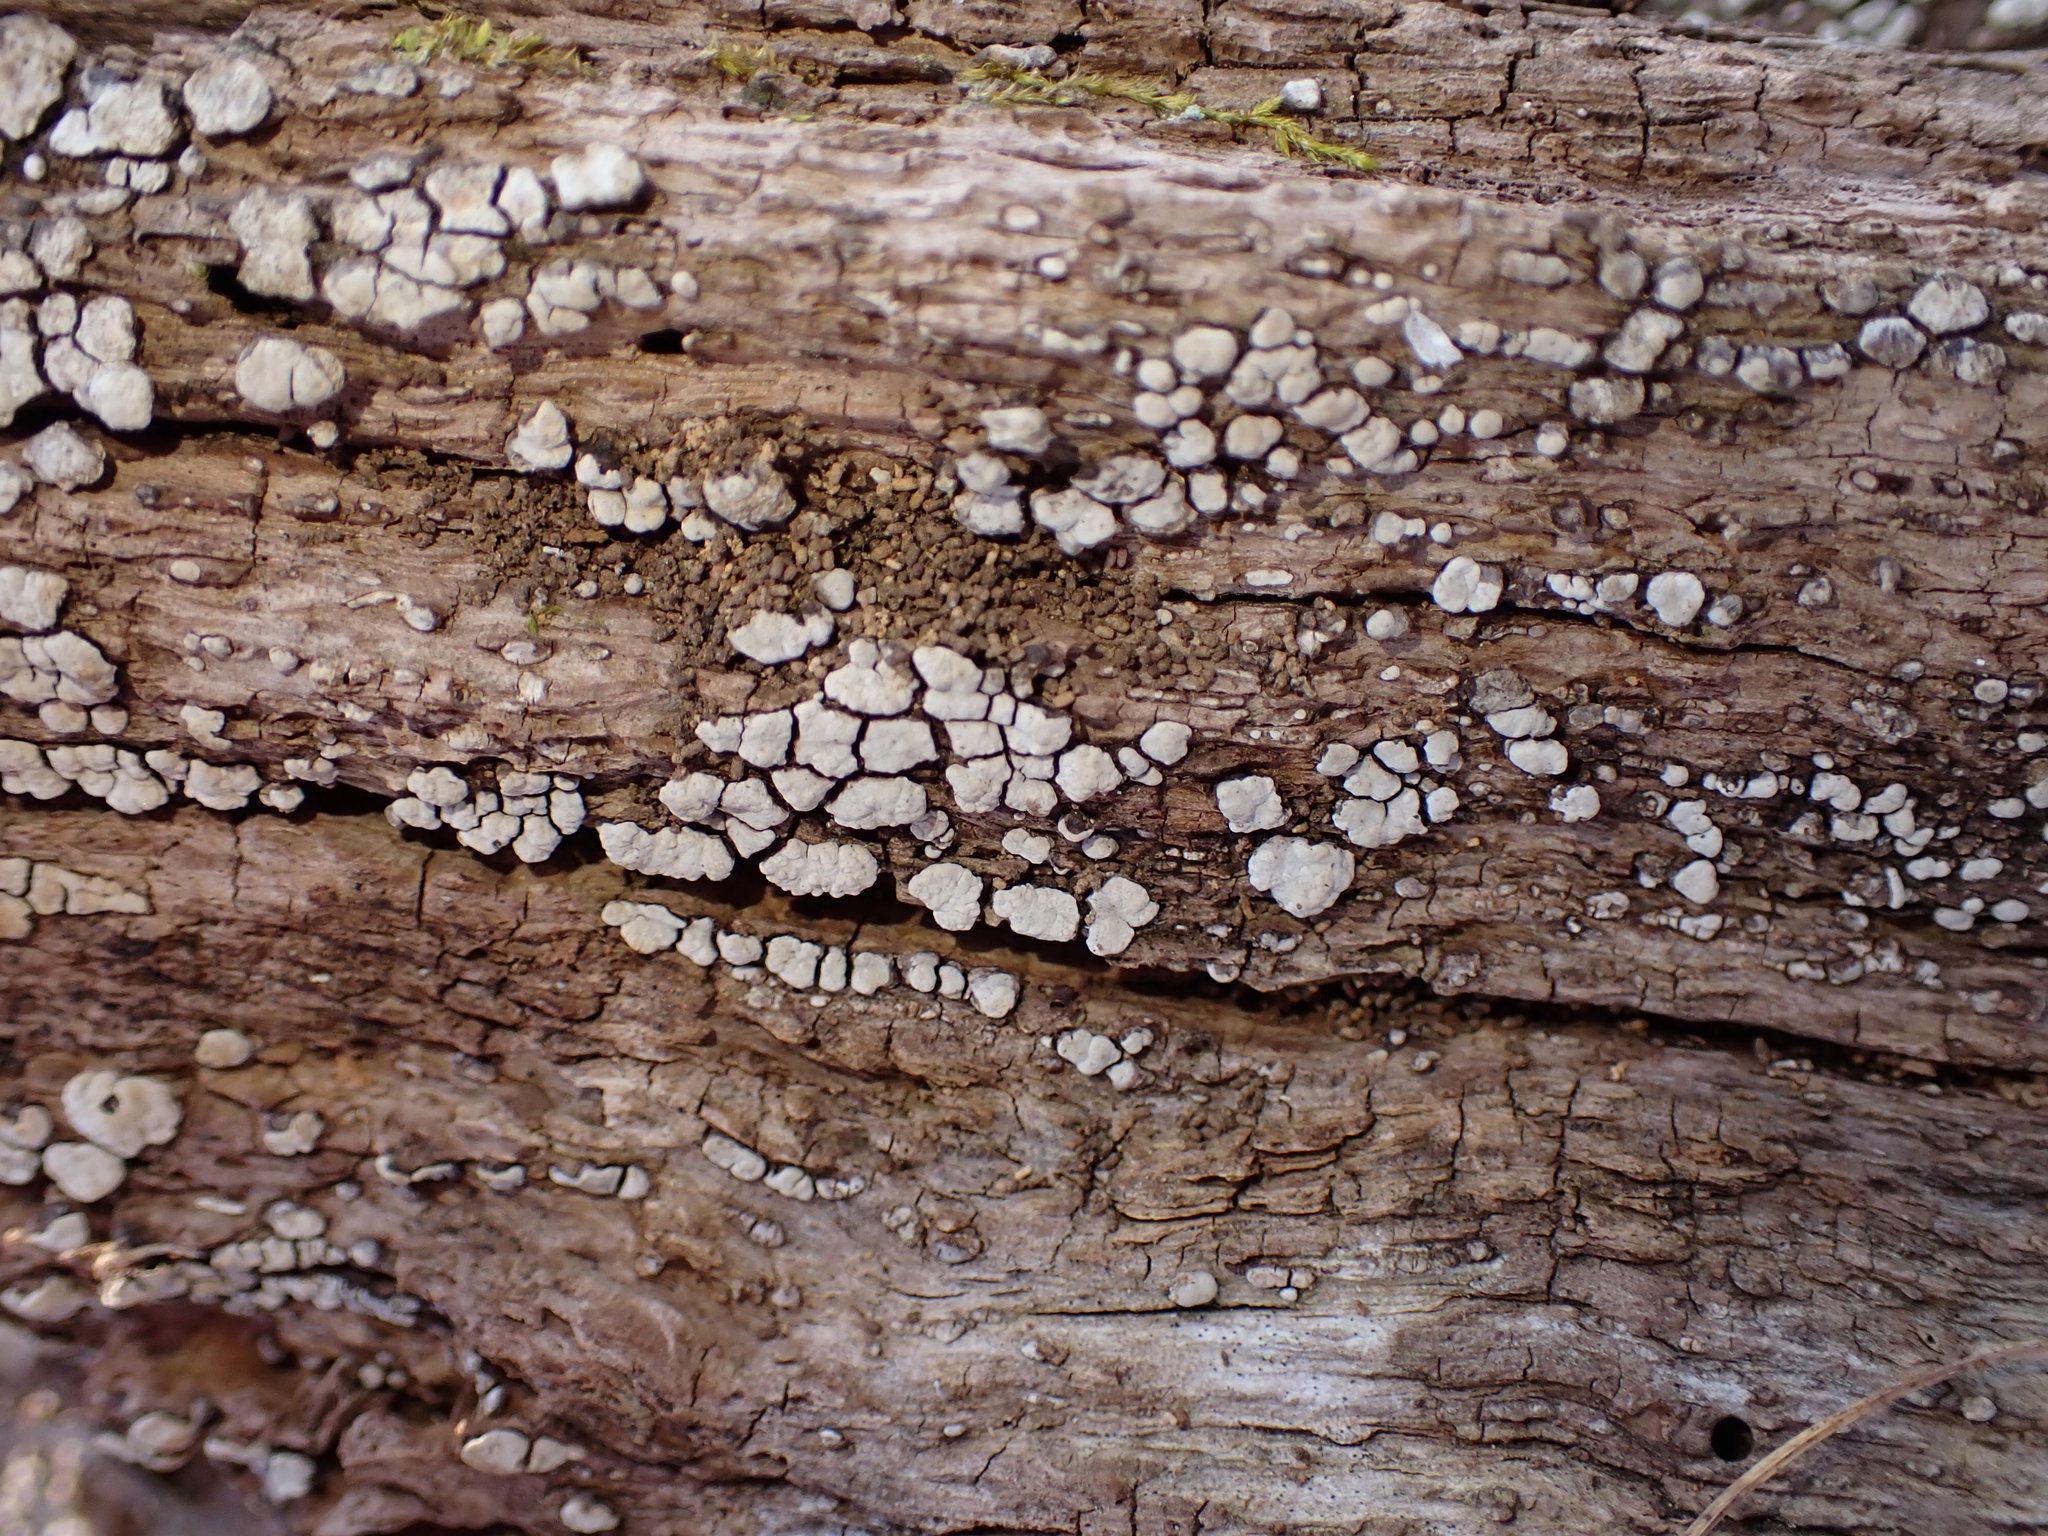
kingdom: Fungi
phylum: Basidiomycota
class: Agaricomycetes
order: Russulales
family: Stereaceae
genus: Xylobolus
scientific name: Xylobolus frustulatus
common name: Ceramic parchment
